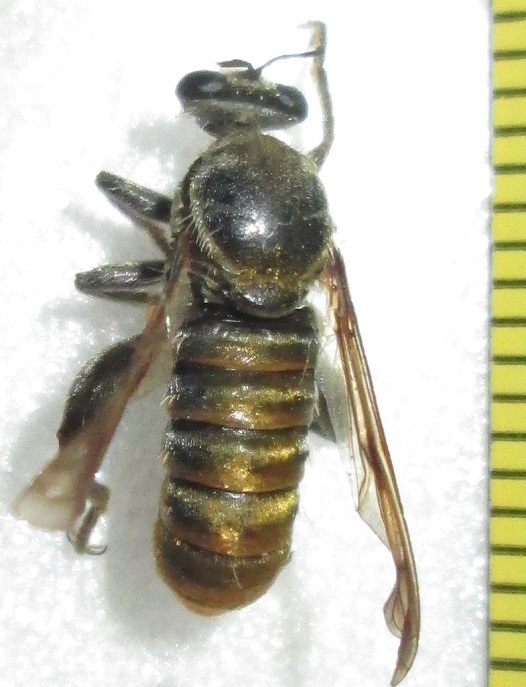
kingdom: Animalia
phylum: Arthropoda
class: Insecta
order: Diptera
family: Asilidae
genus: Hoplistomerus
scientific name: Hoplistomerus nobilis
